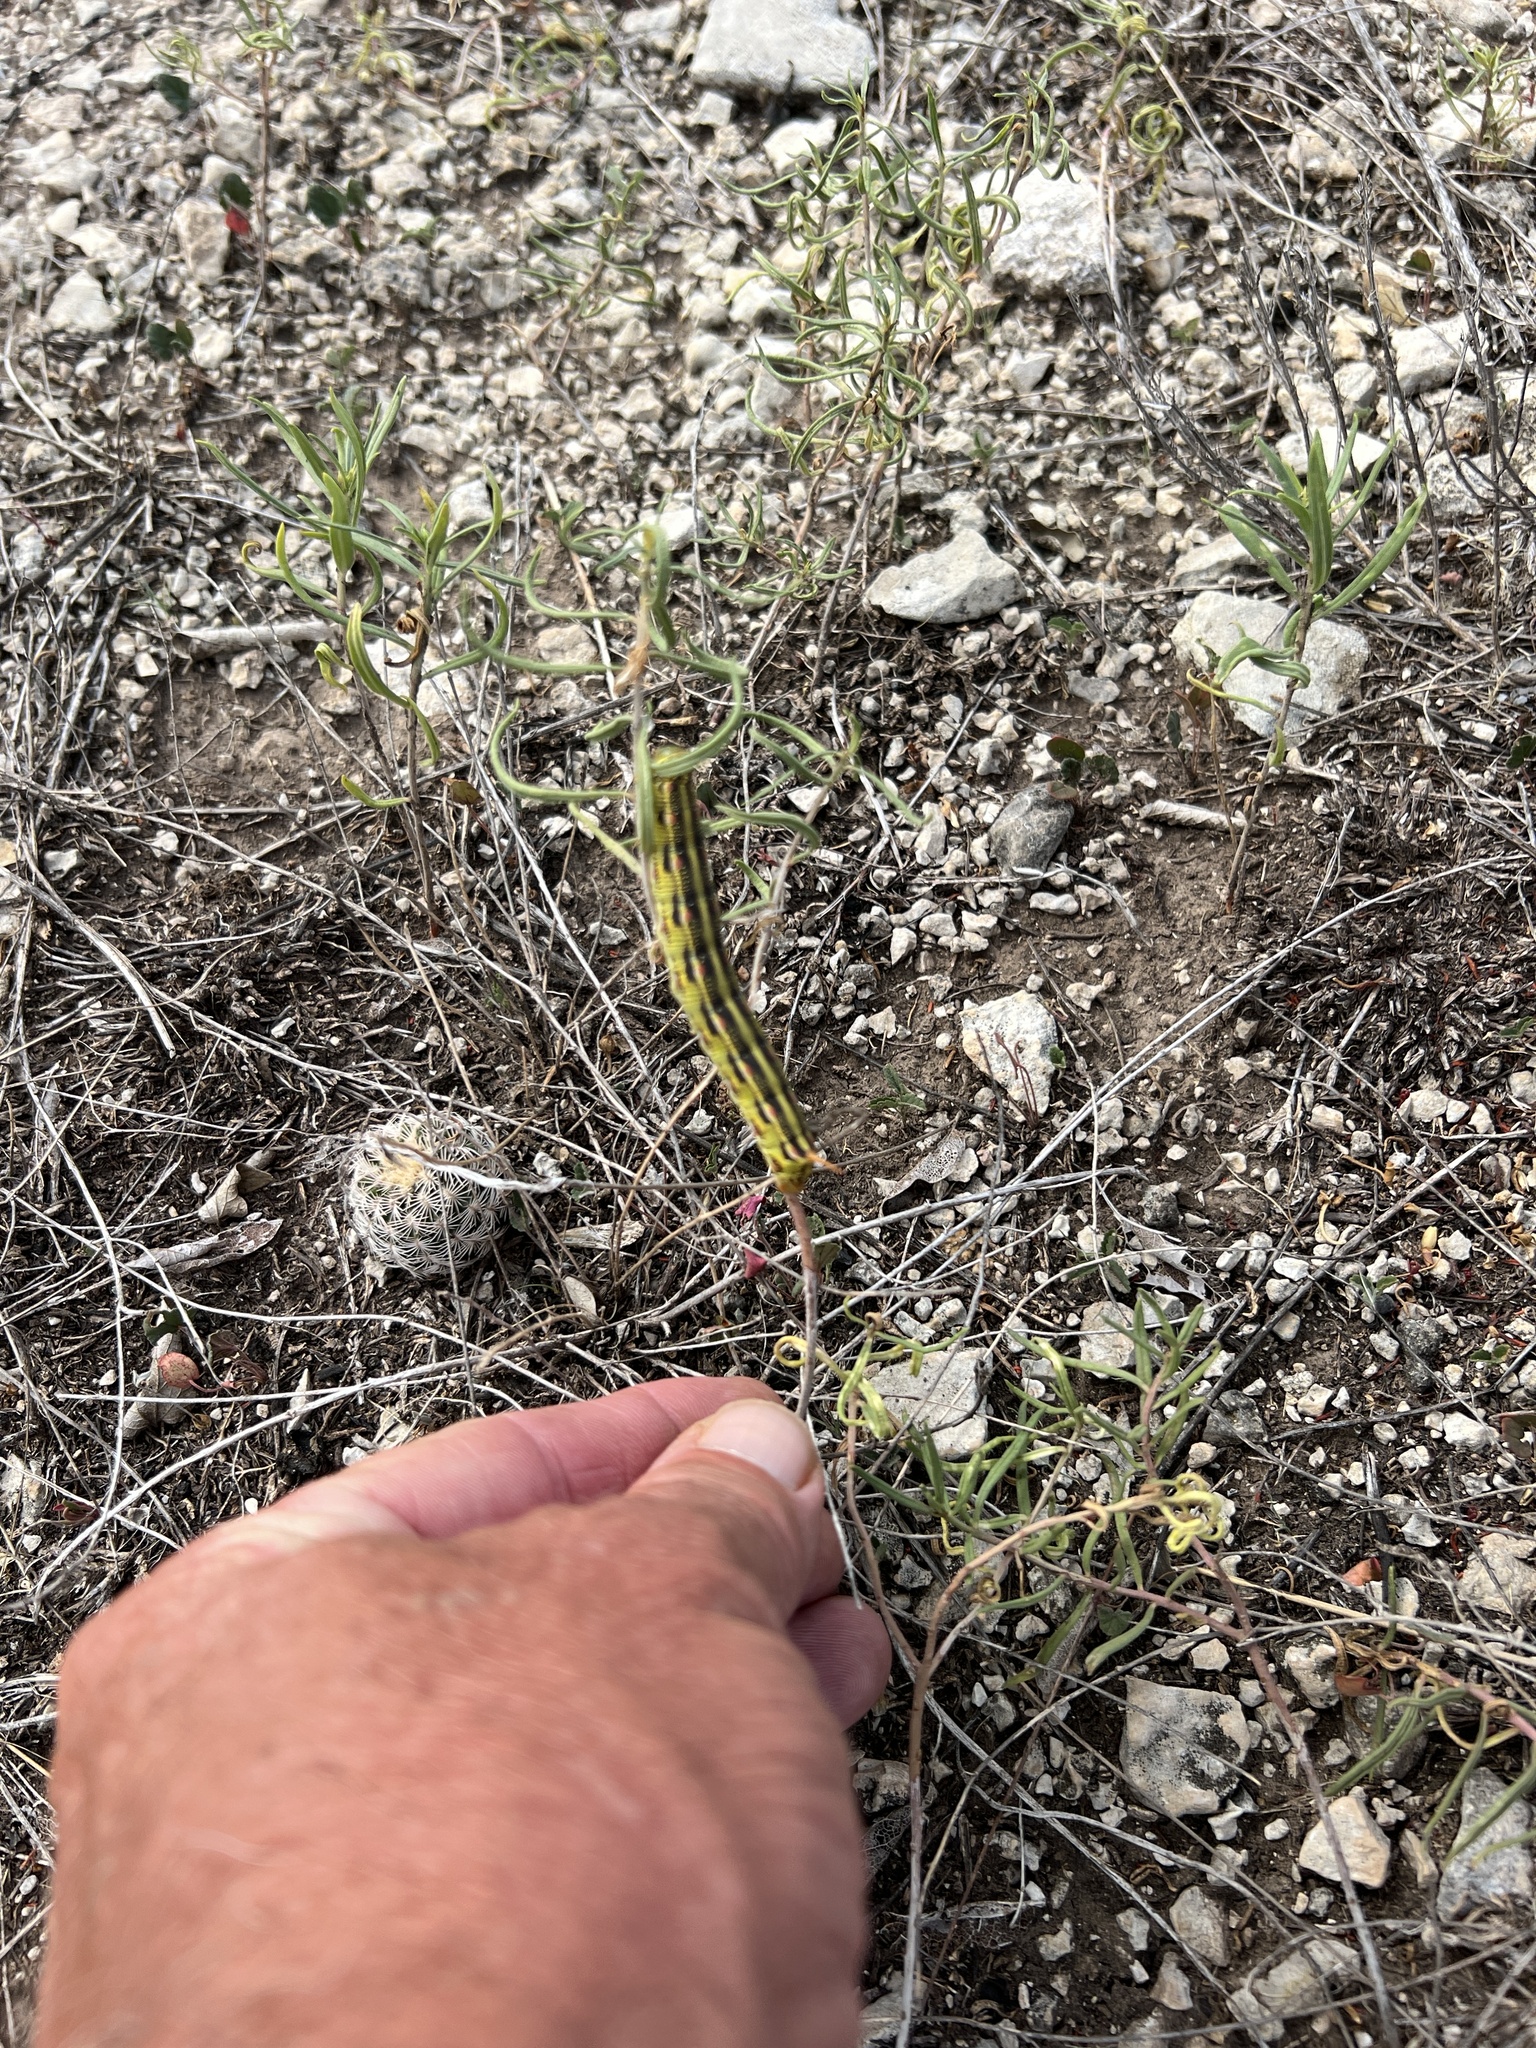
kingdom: Animalia
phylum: Arthropoda
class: Insecta
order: Lepidoptera
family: Sphingidae
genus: Hyles
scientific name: Hyles lineata
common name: White-lined sphinx
